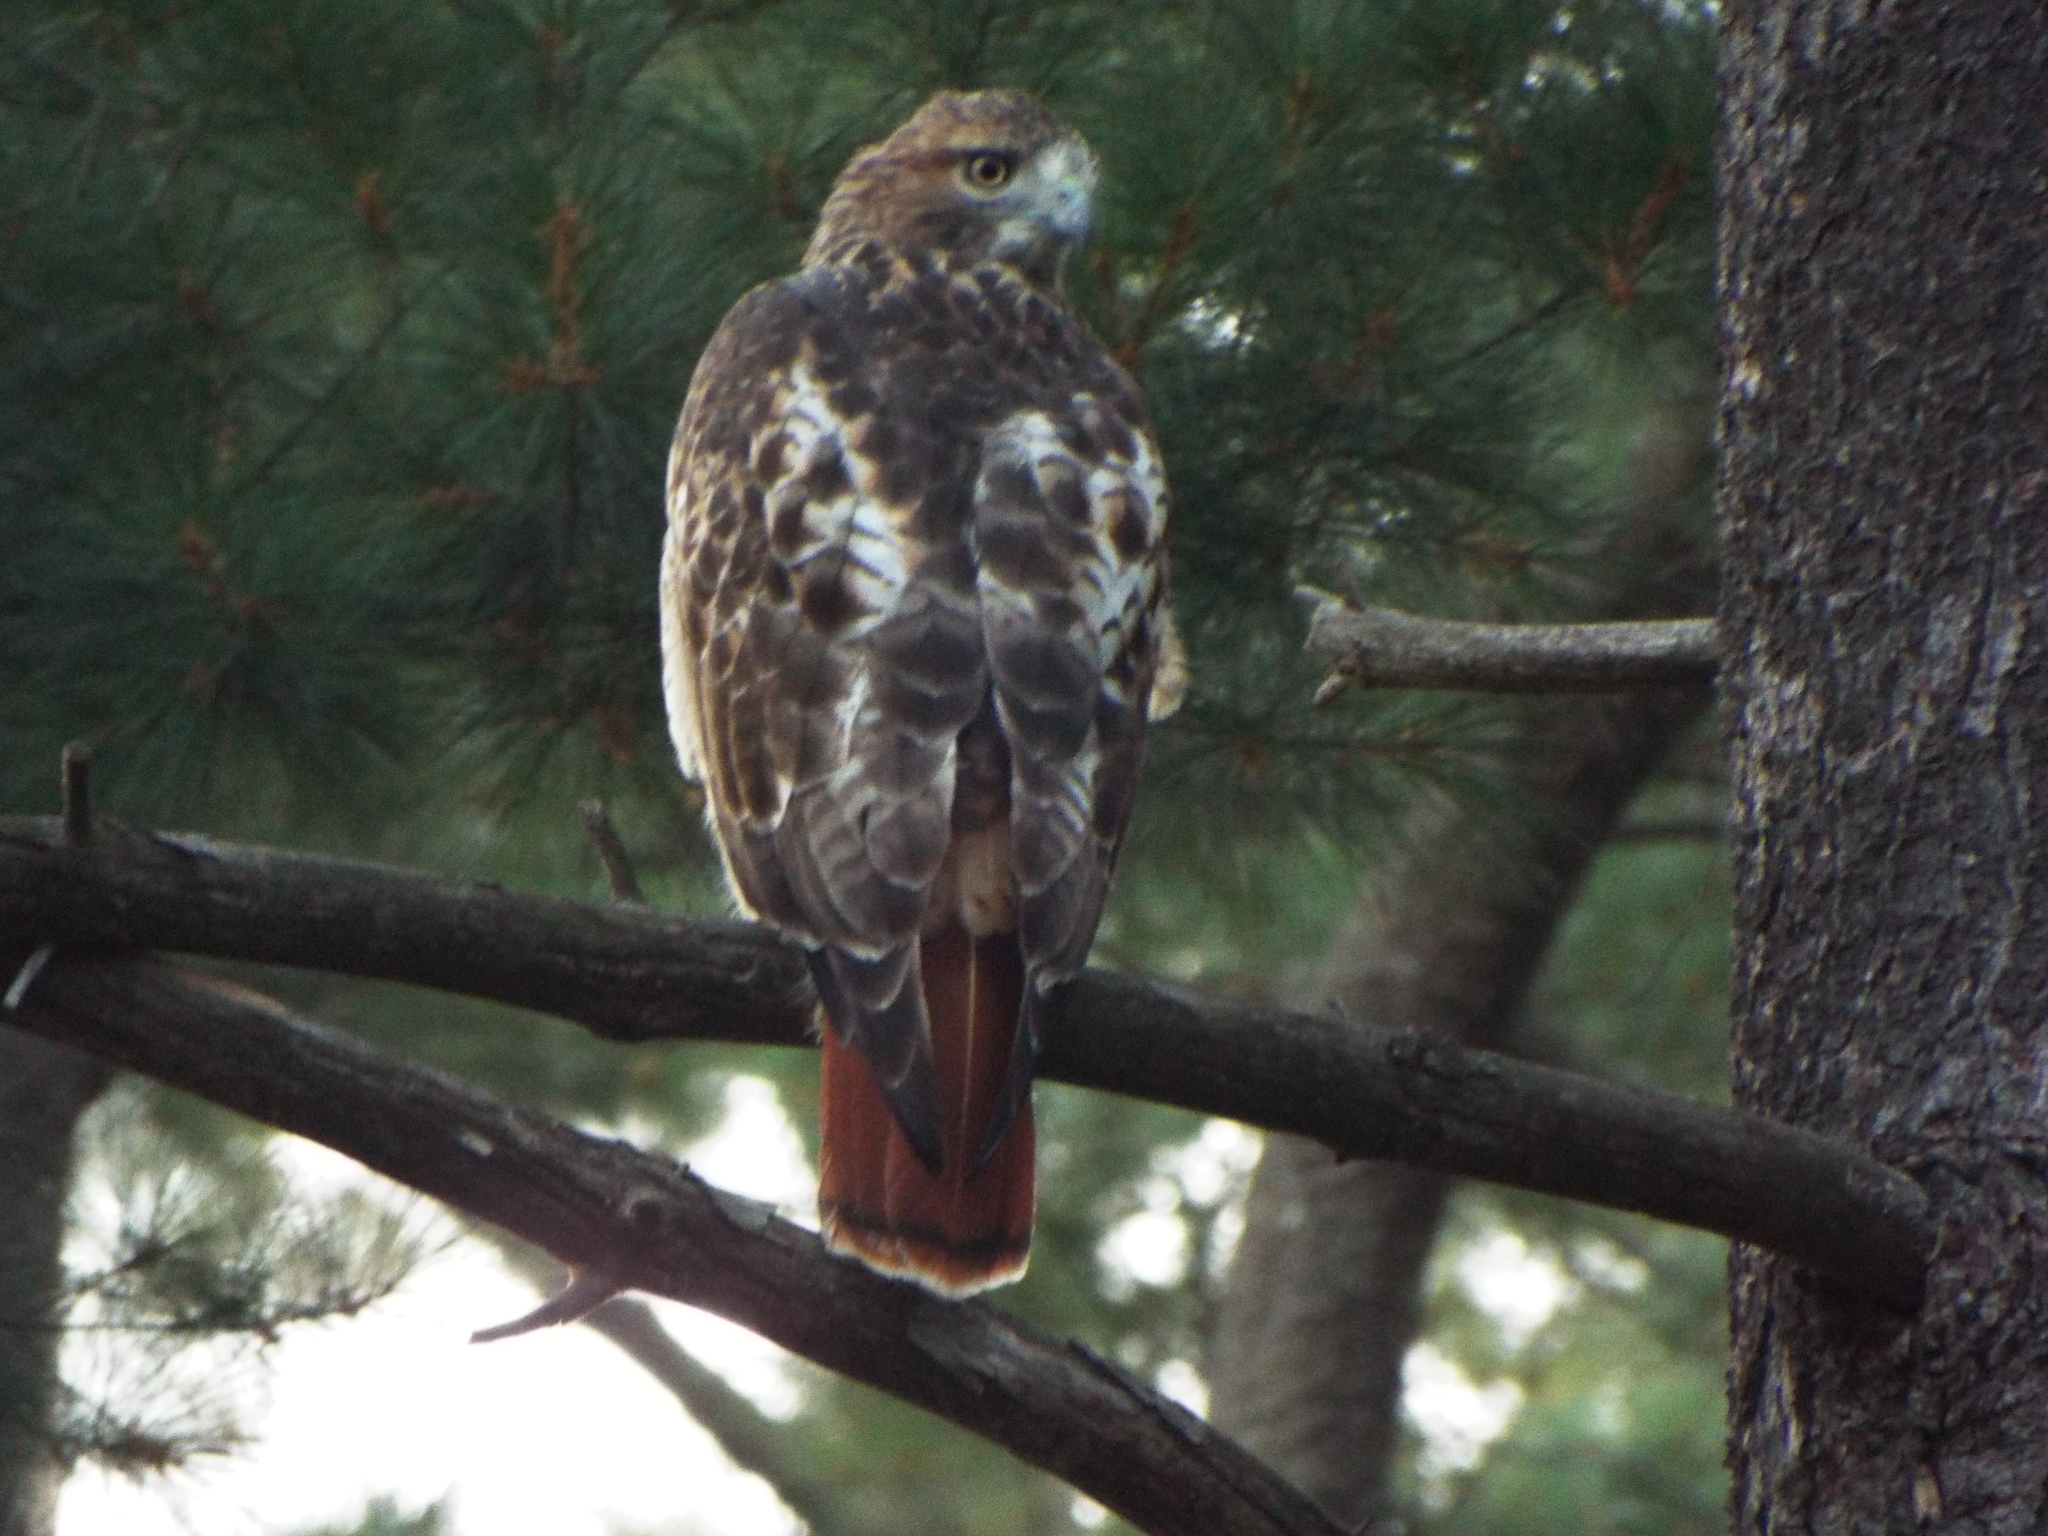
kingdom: Animalia
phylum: Chordata
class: Aves
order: Accipitriformes
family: Accipitridae
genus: Buteo
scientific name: Buteo jamaicensis
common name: Red-tailed hawk
